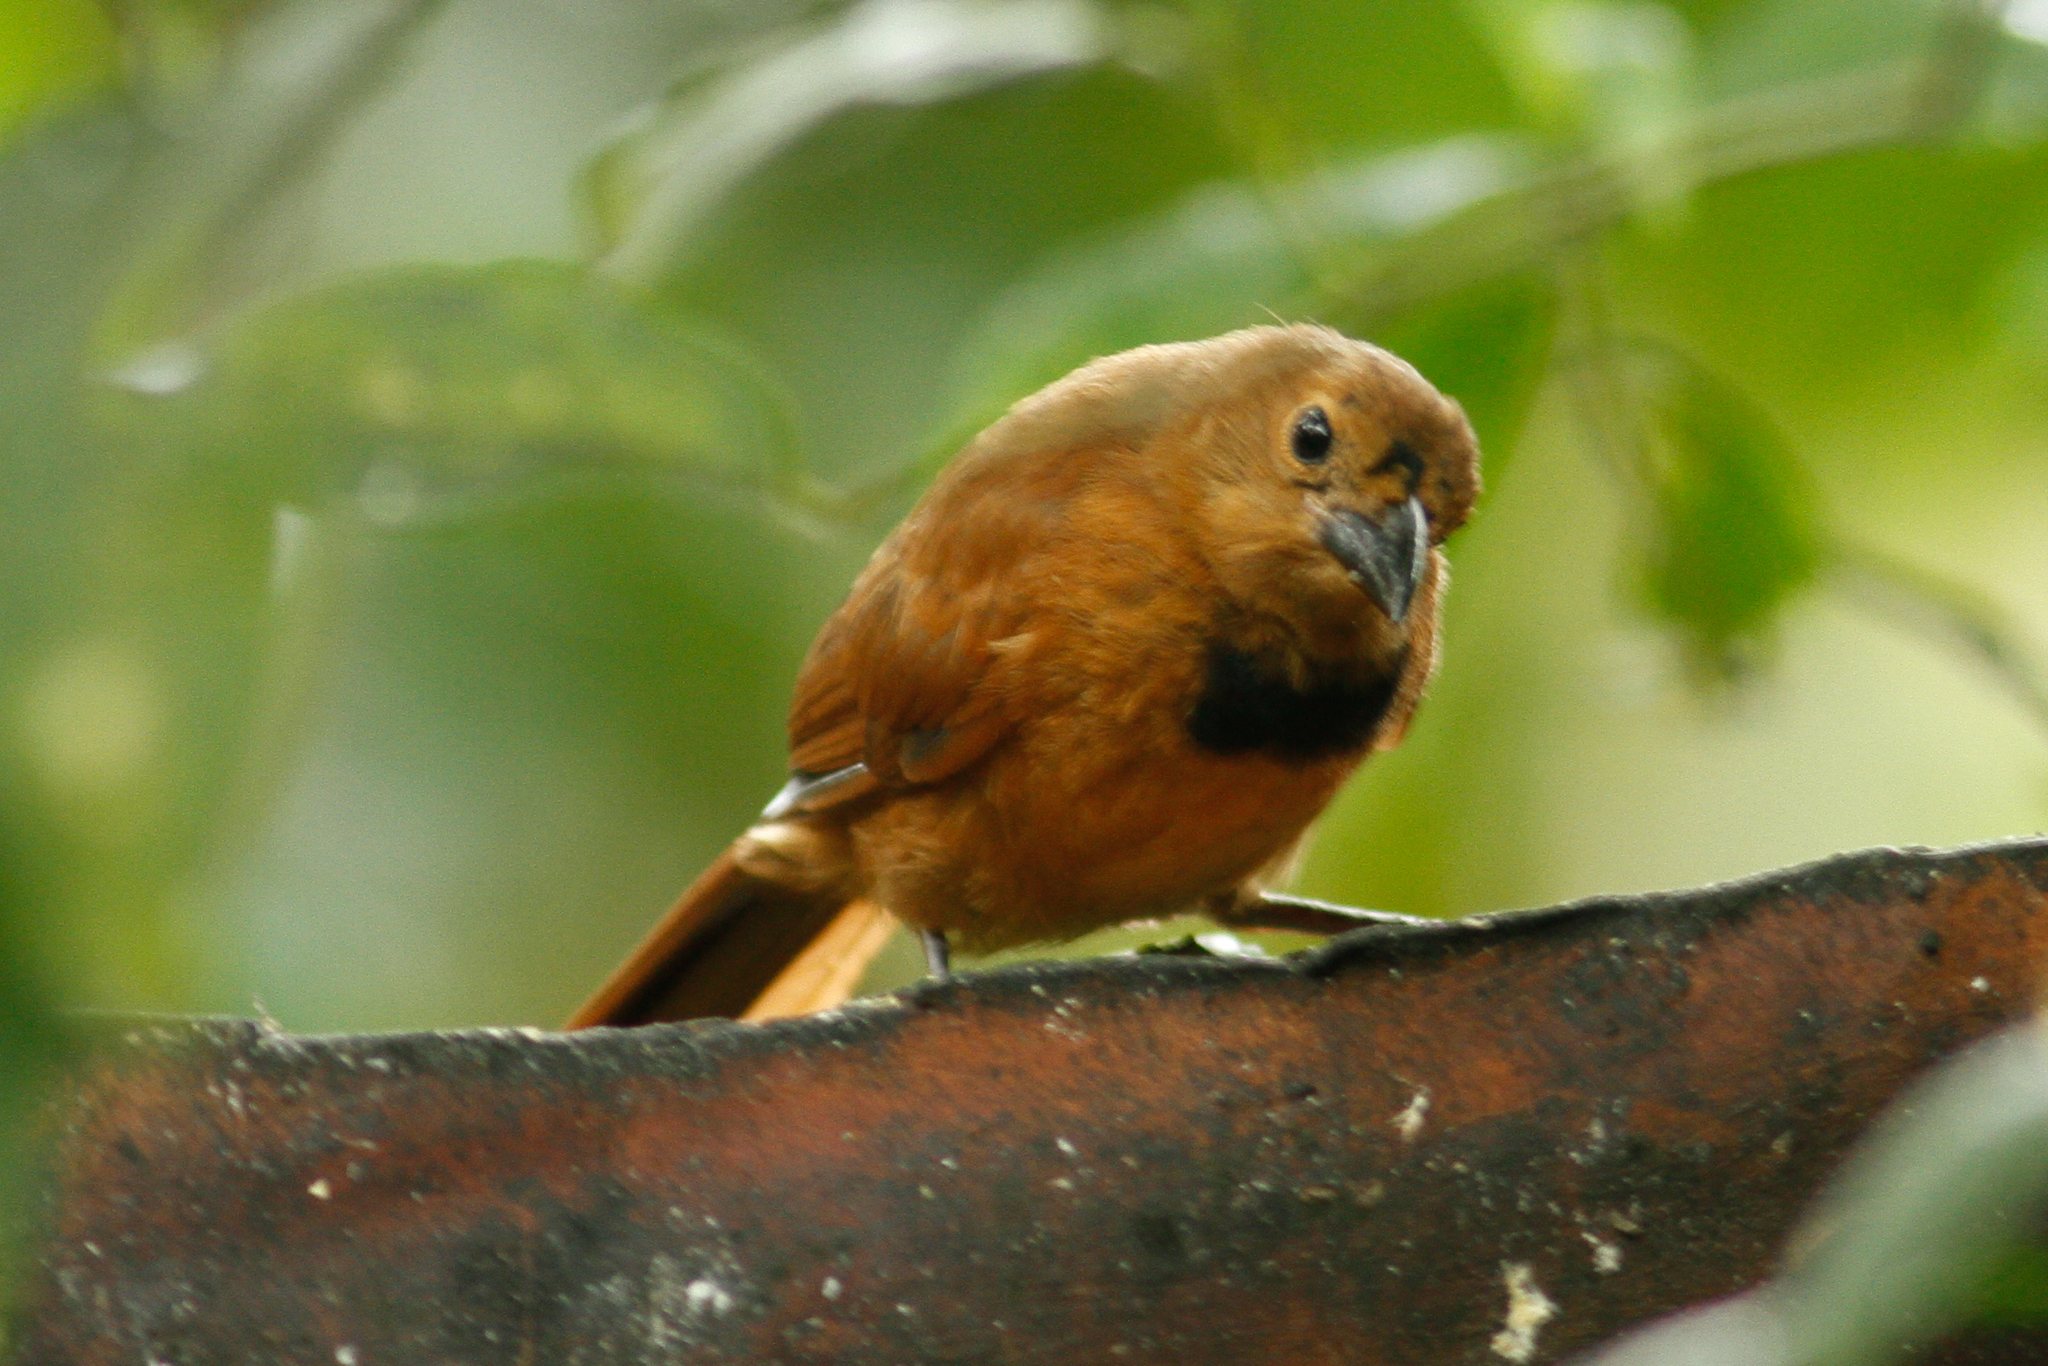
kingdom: Animalia
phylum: Chordata
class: Aves
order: Passeriformes
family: Thraupidae
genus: Tachyphonus
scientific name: Tachyphonus rufus
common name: White-lined tanager
